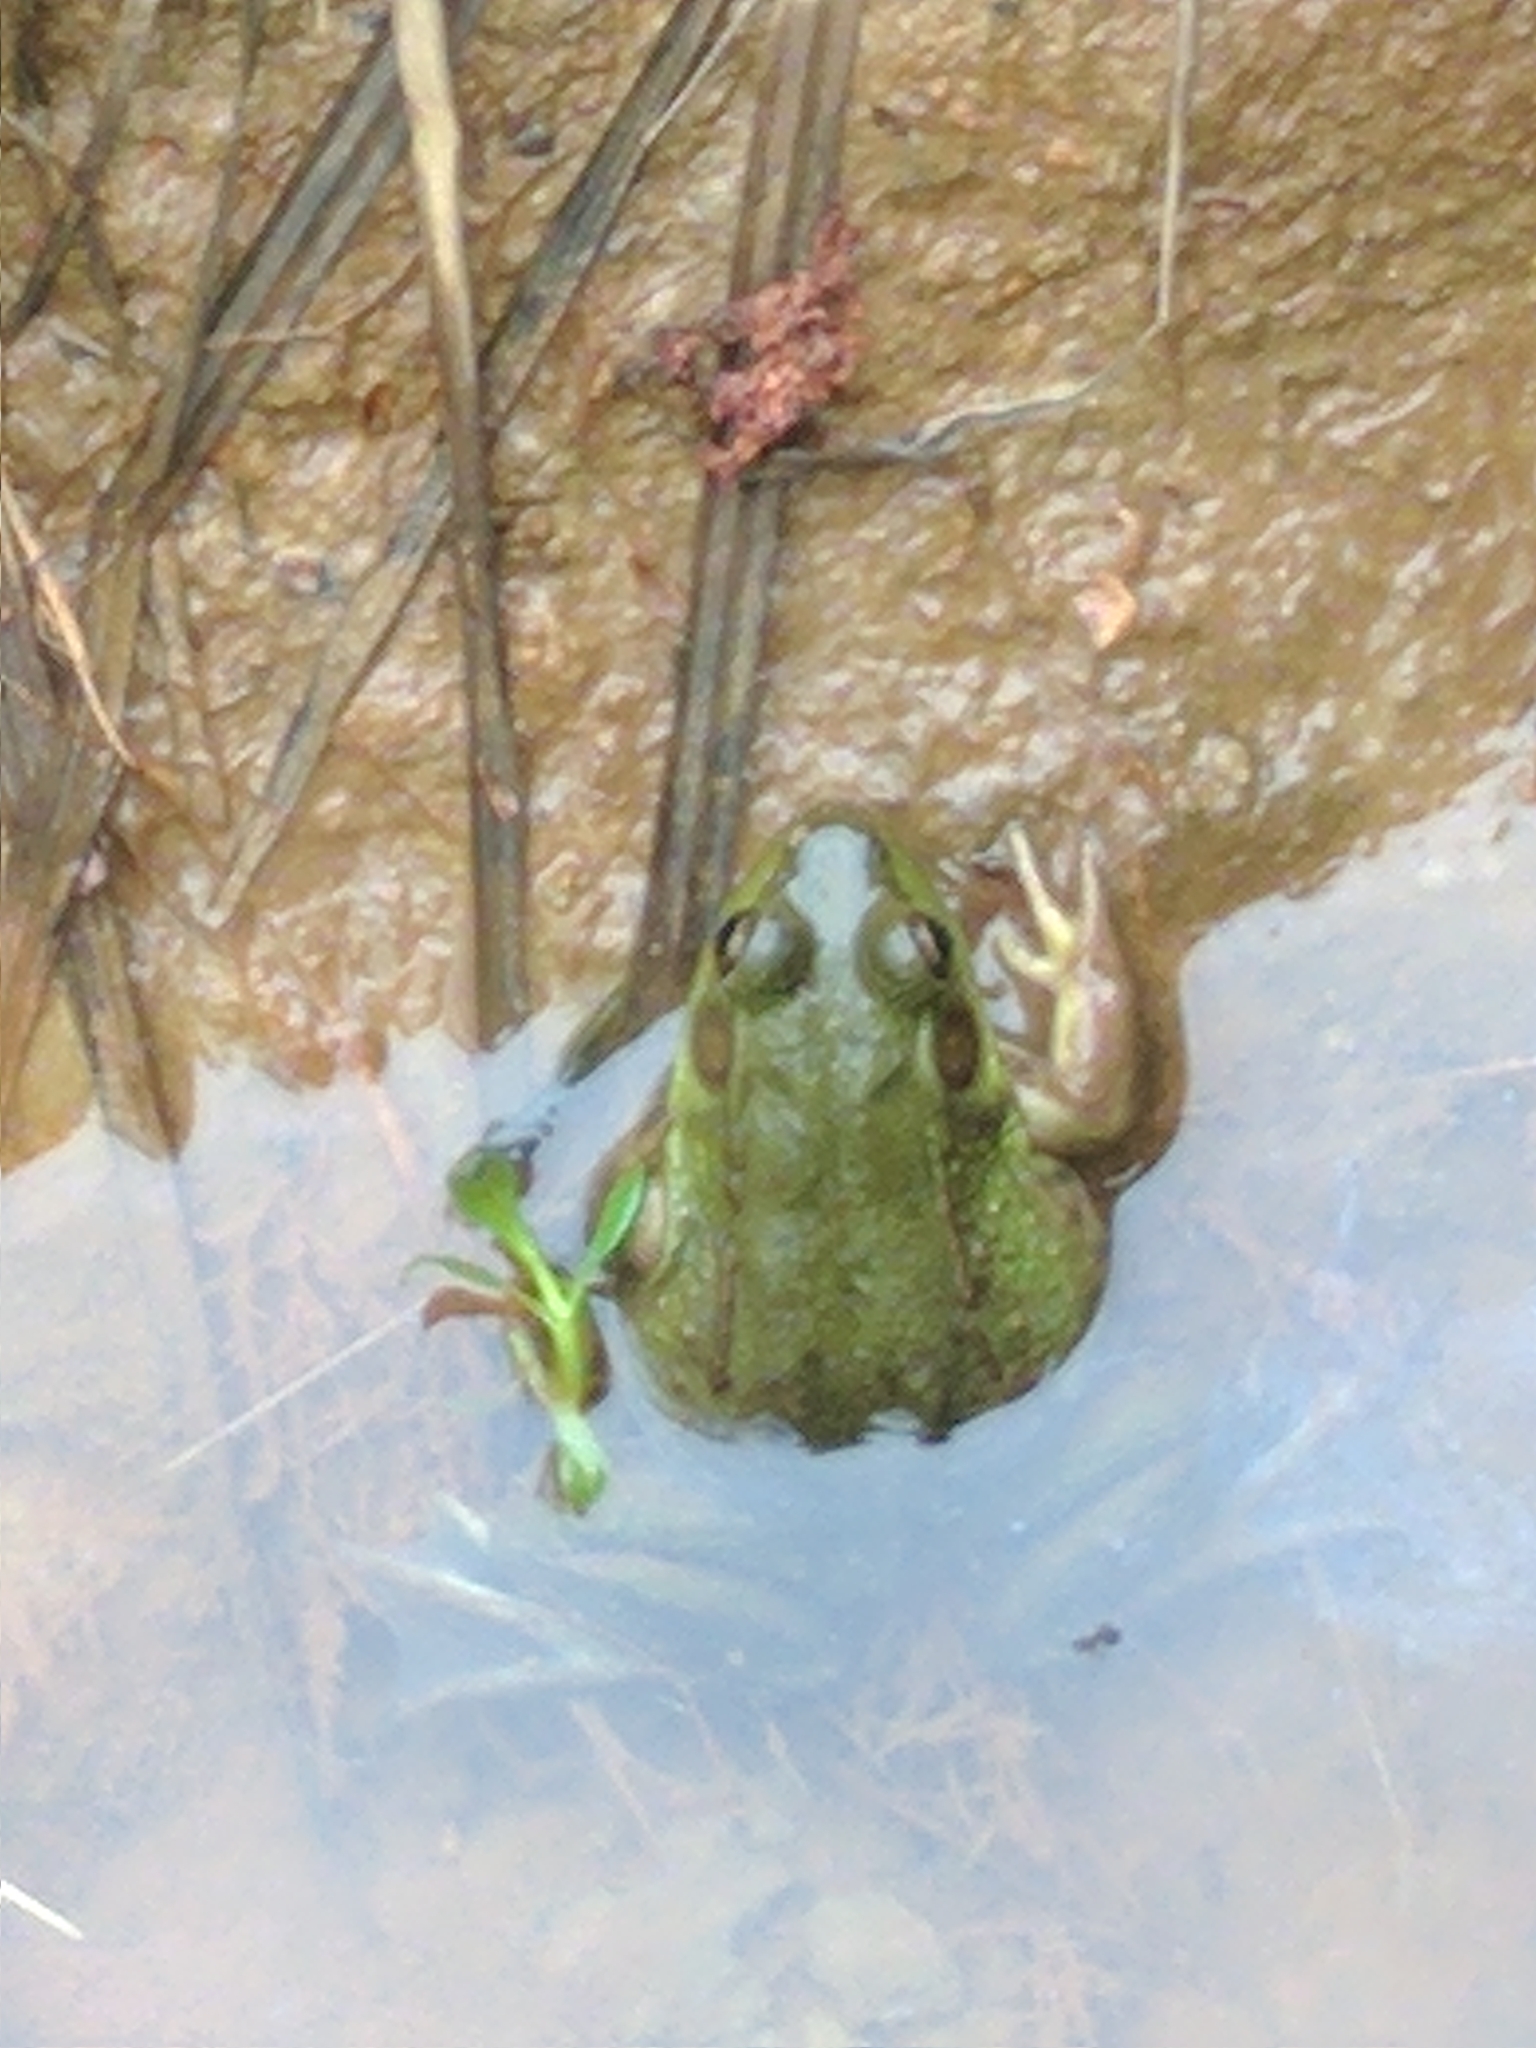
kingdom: Animalia
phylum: Chordata
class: Amphibia
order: Anura
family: Ranidae
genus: Lithobates
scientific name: Lithobates clamitans
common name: Green frog
